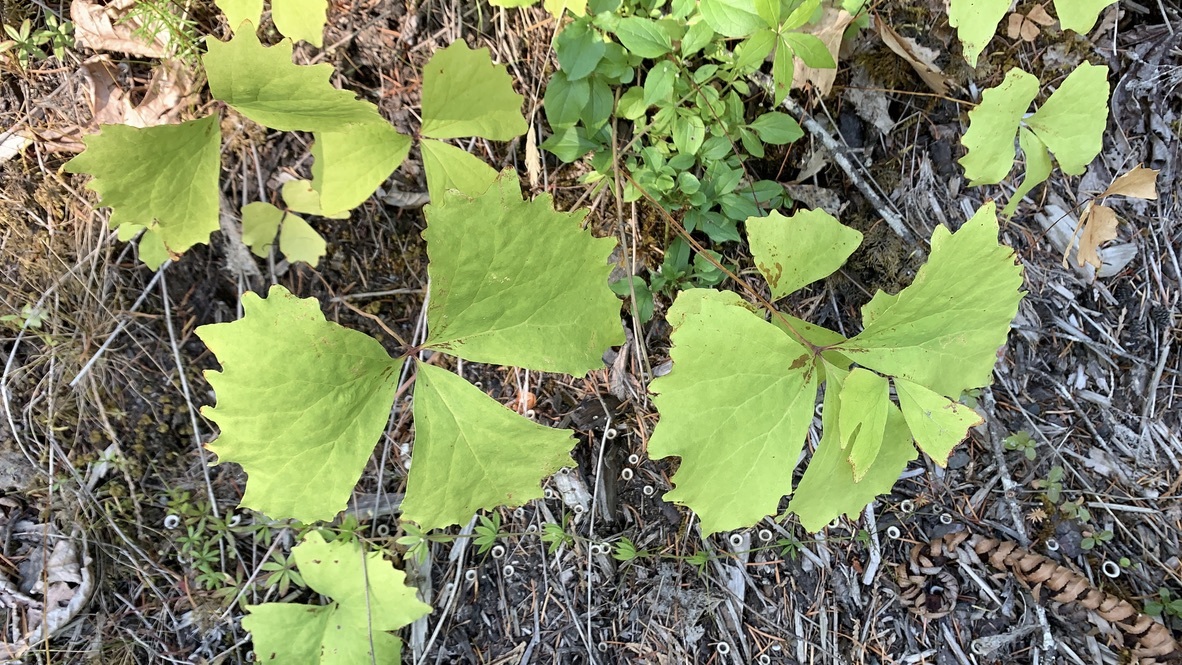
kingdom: Plantae
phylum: Tracheophyta
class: Magnoliopsida
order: Ranunculales
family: Berberidaceae
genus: Achlys
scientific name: Achlys triphylla
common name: Vanilla-leaf
